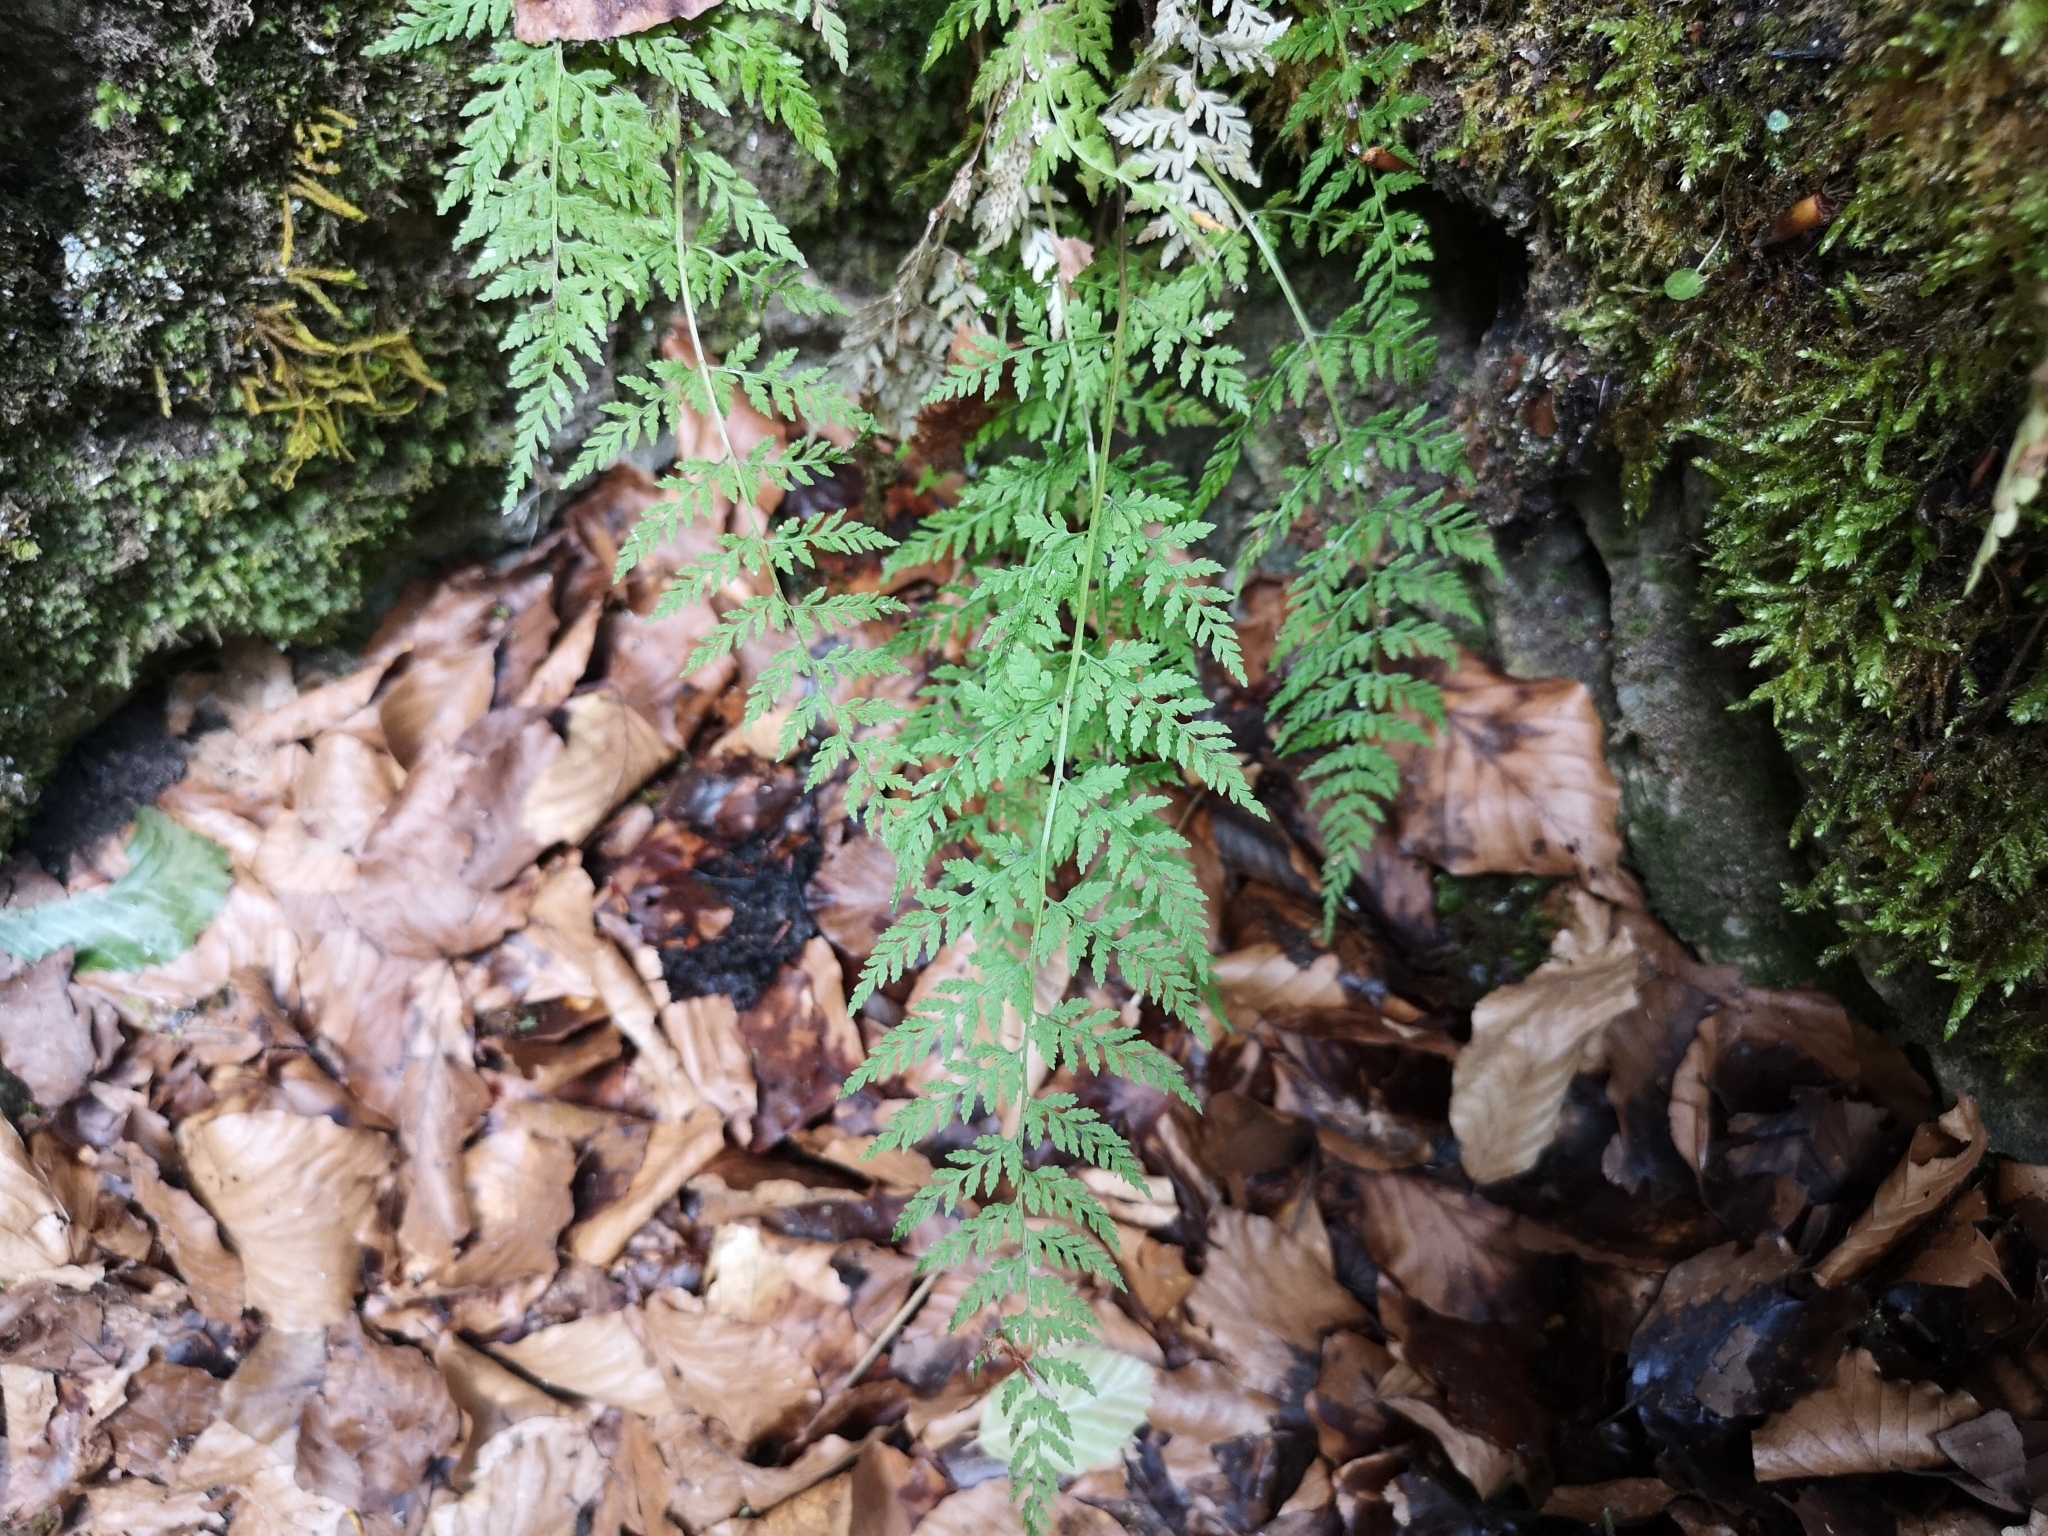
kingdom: Plantae
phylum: Tracheophyta
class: Polypodiopsida
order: Polypodiales
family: Cystopteridaceae
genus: Cystopteris
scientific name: Cystopteris fragilis
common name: Brittle bladder fern
